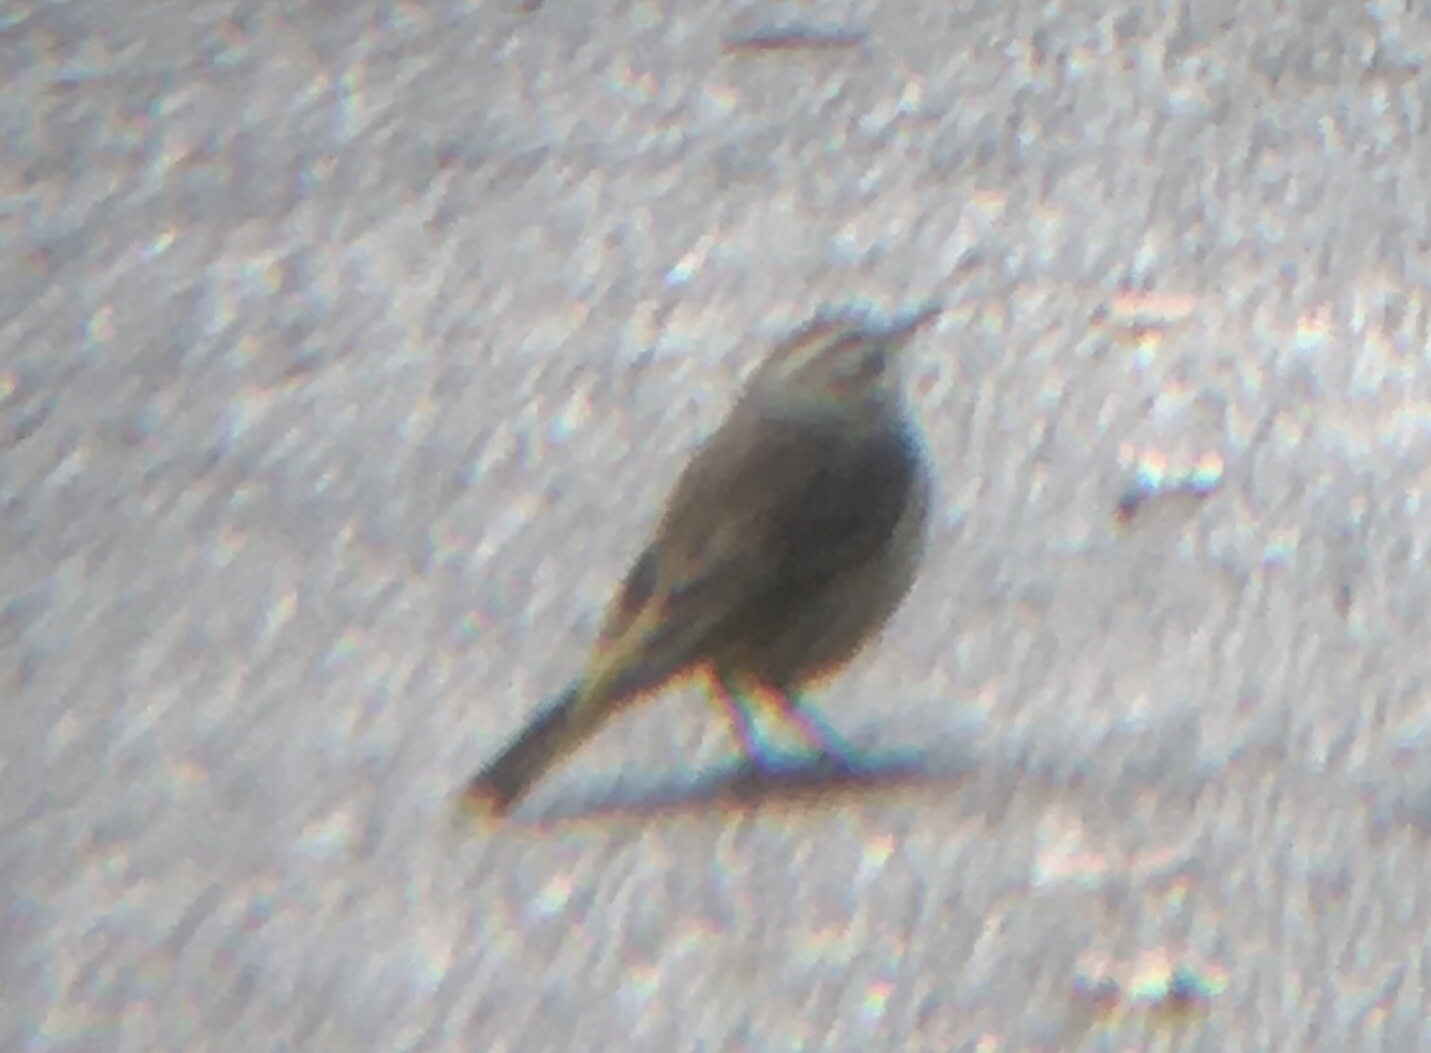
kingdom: Animalia
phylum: Chordata
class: Aves
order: Passeriformes
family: Parulidae
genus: Setophaga
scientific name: Setophaga palmarum
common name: Palm warbler
